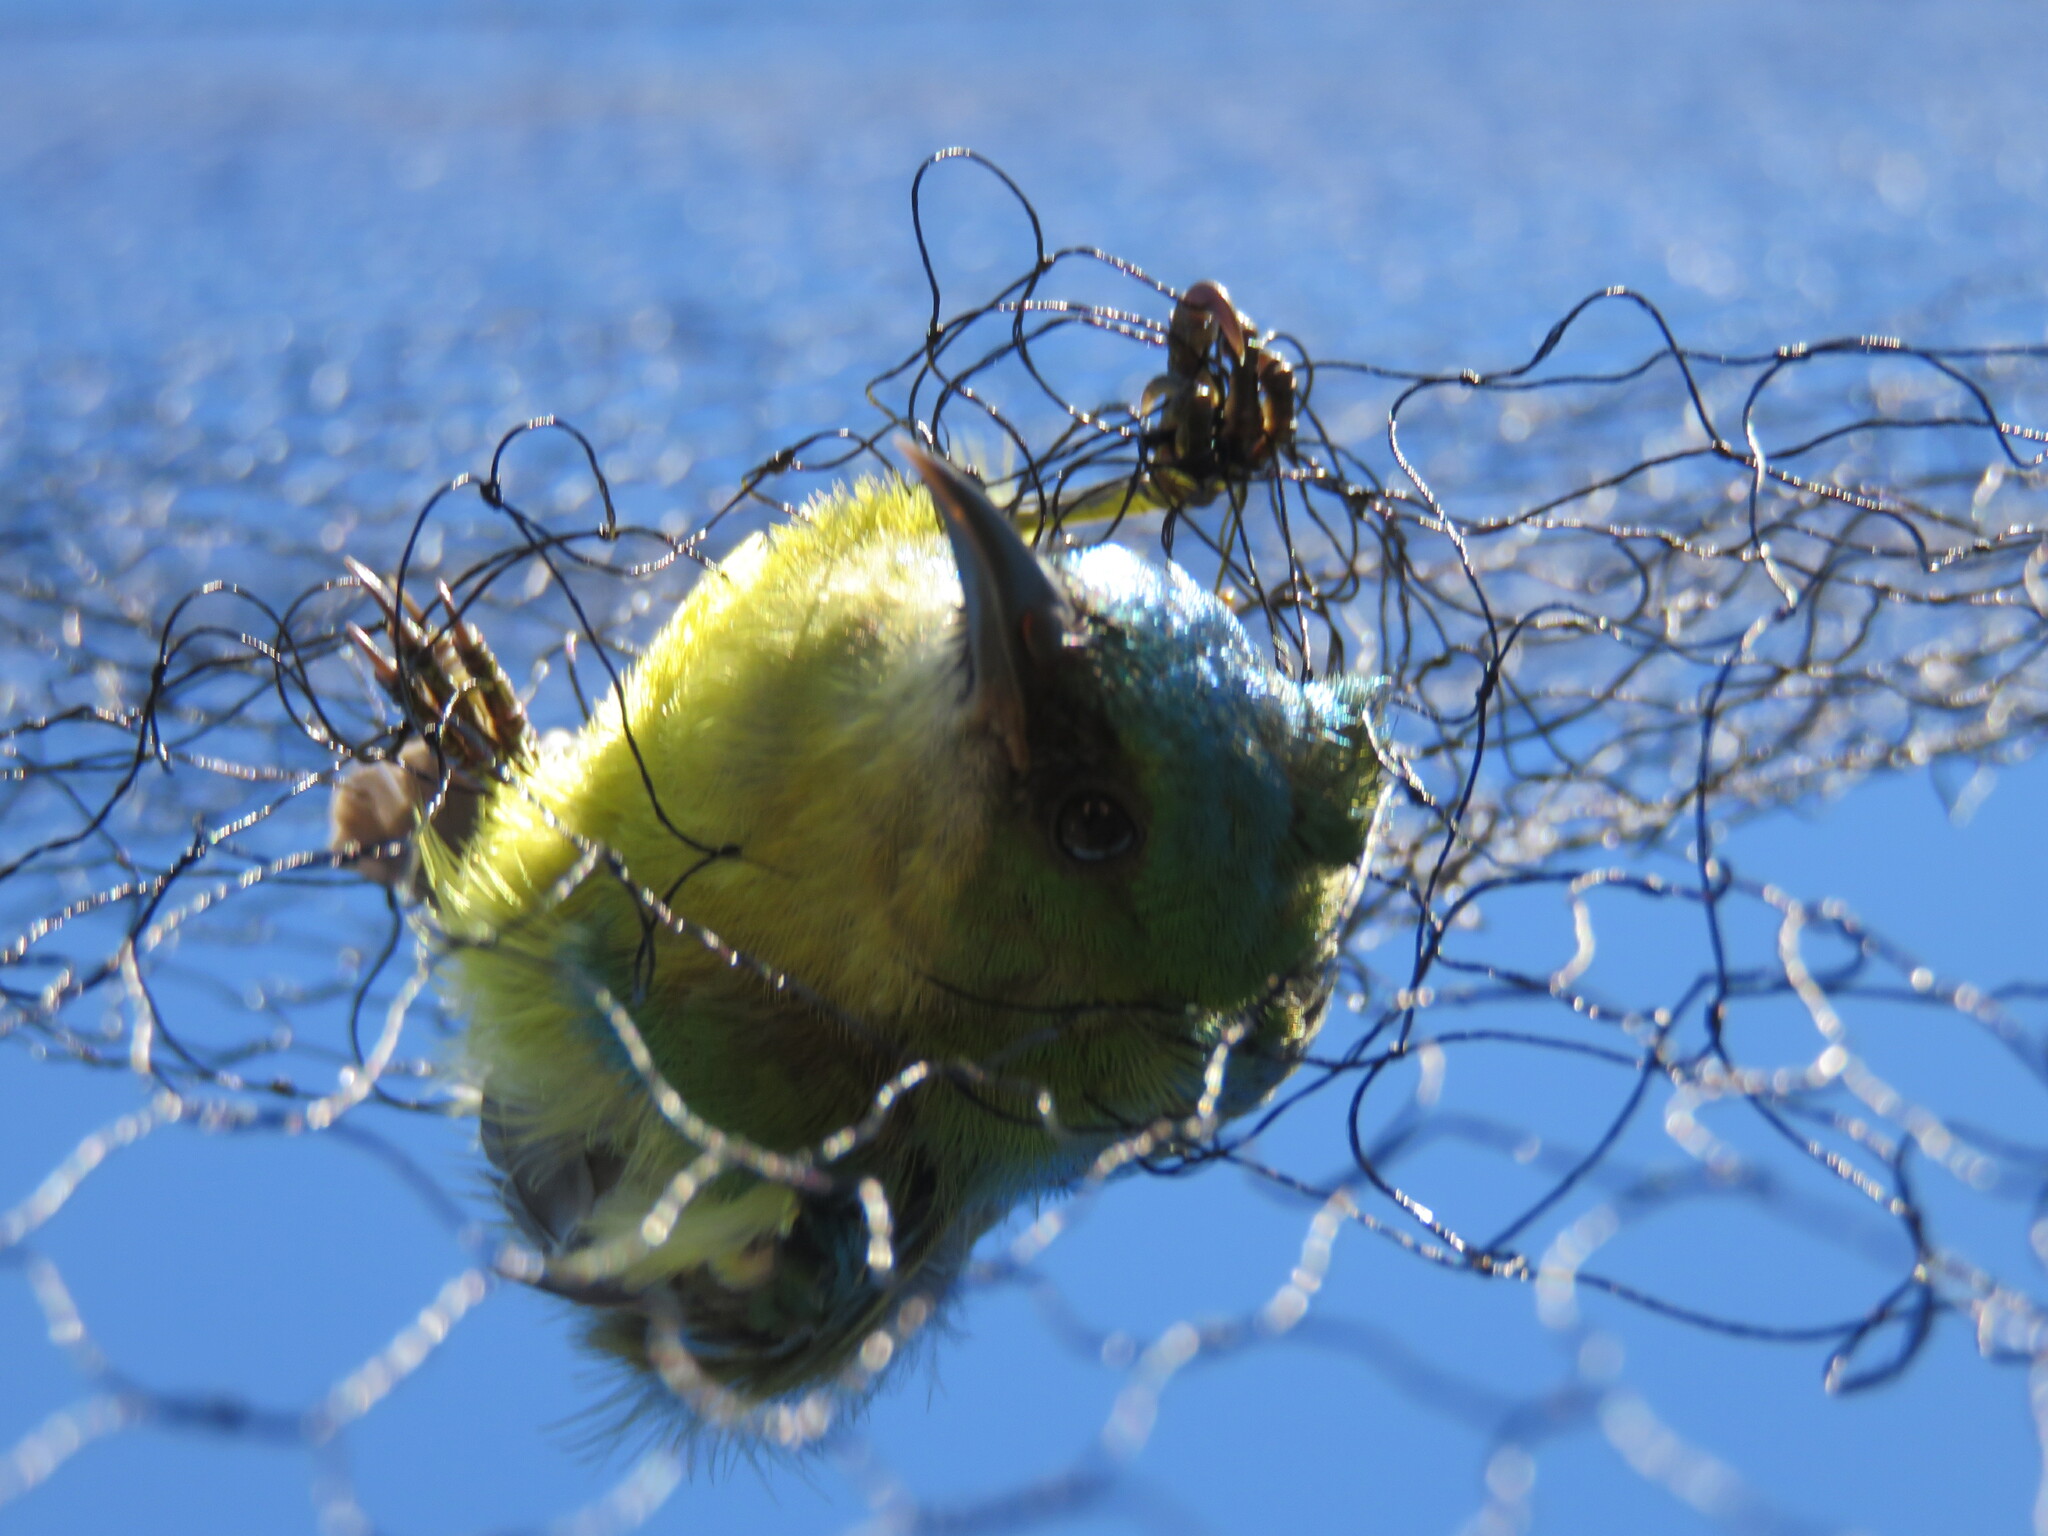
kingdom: Animalia
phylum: Chordata
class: Aves
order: Passeriformes
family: Nectariniidae
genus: Hedydipna
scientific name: Hedydipna collaris
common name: Collared sunbird
